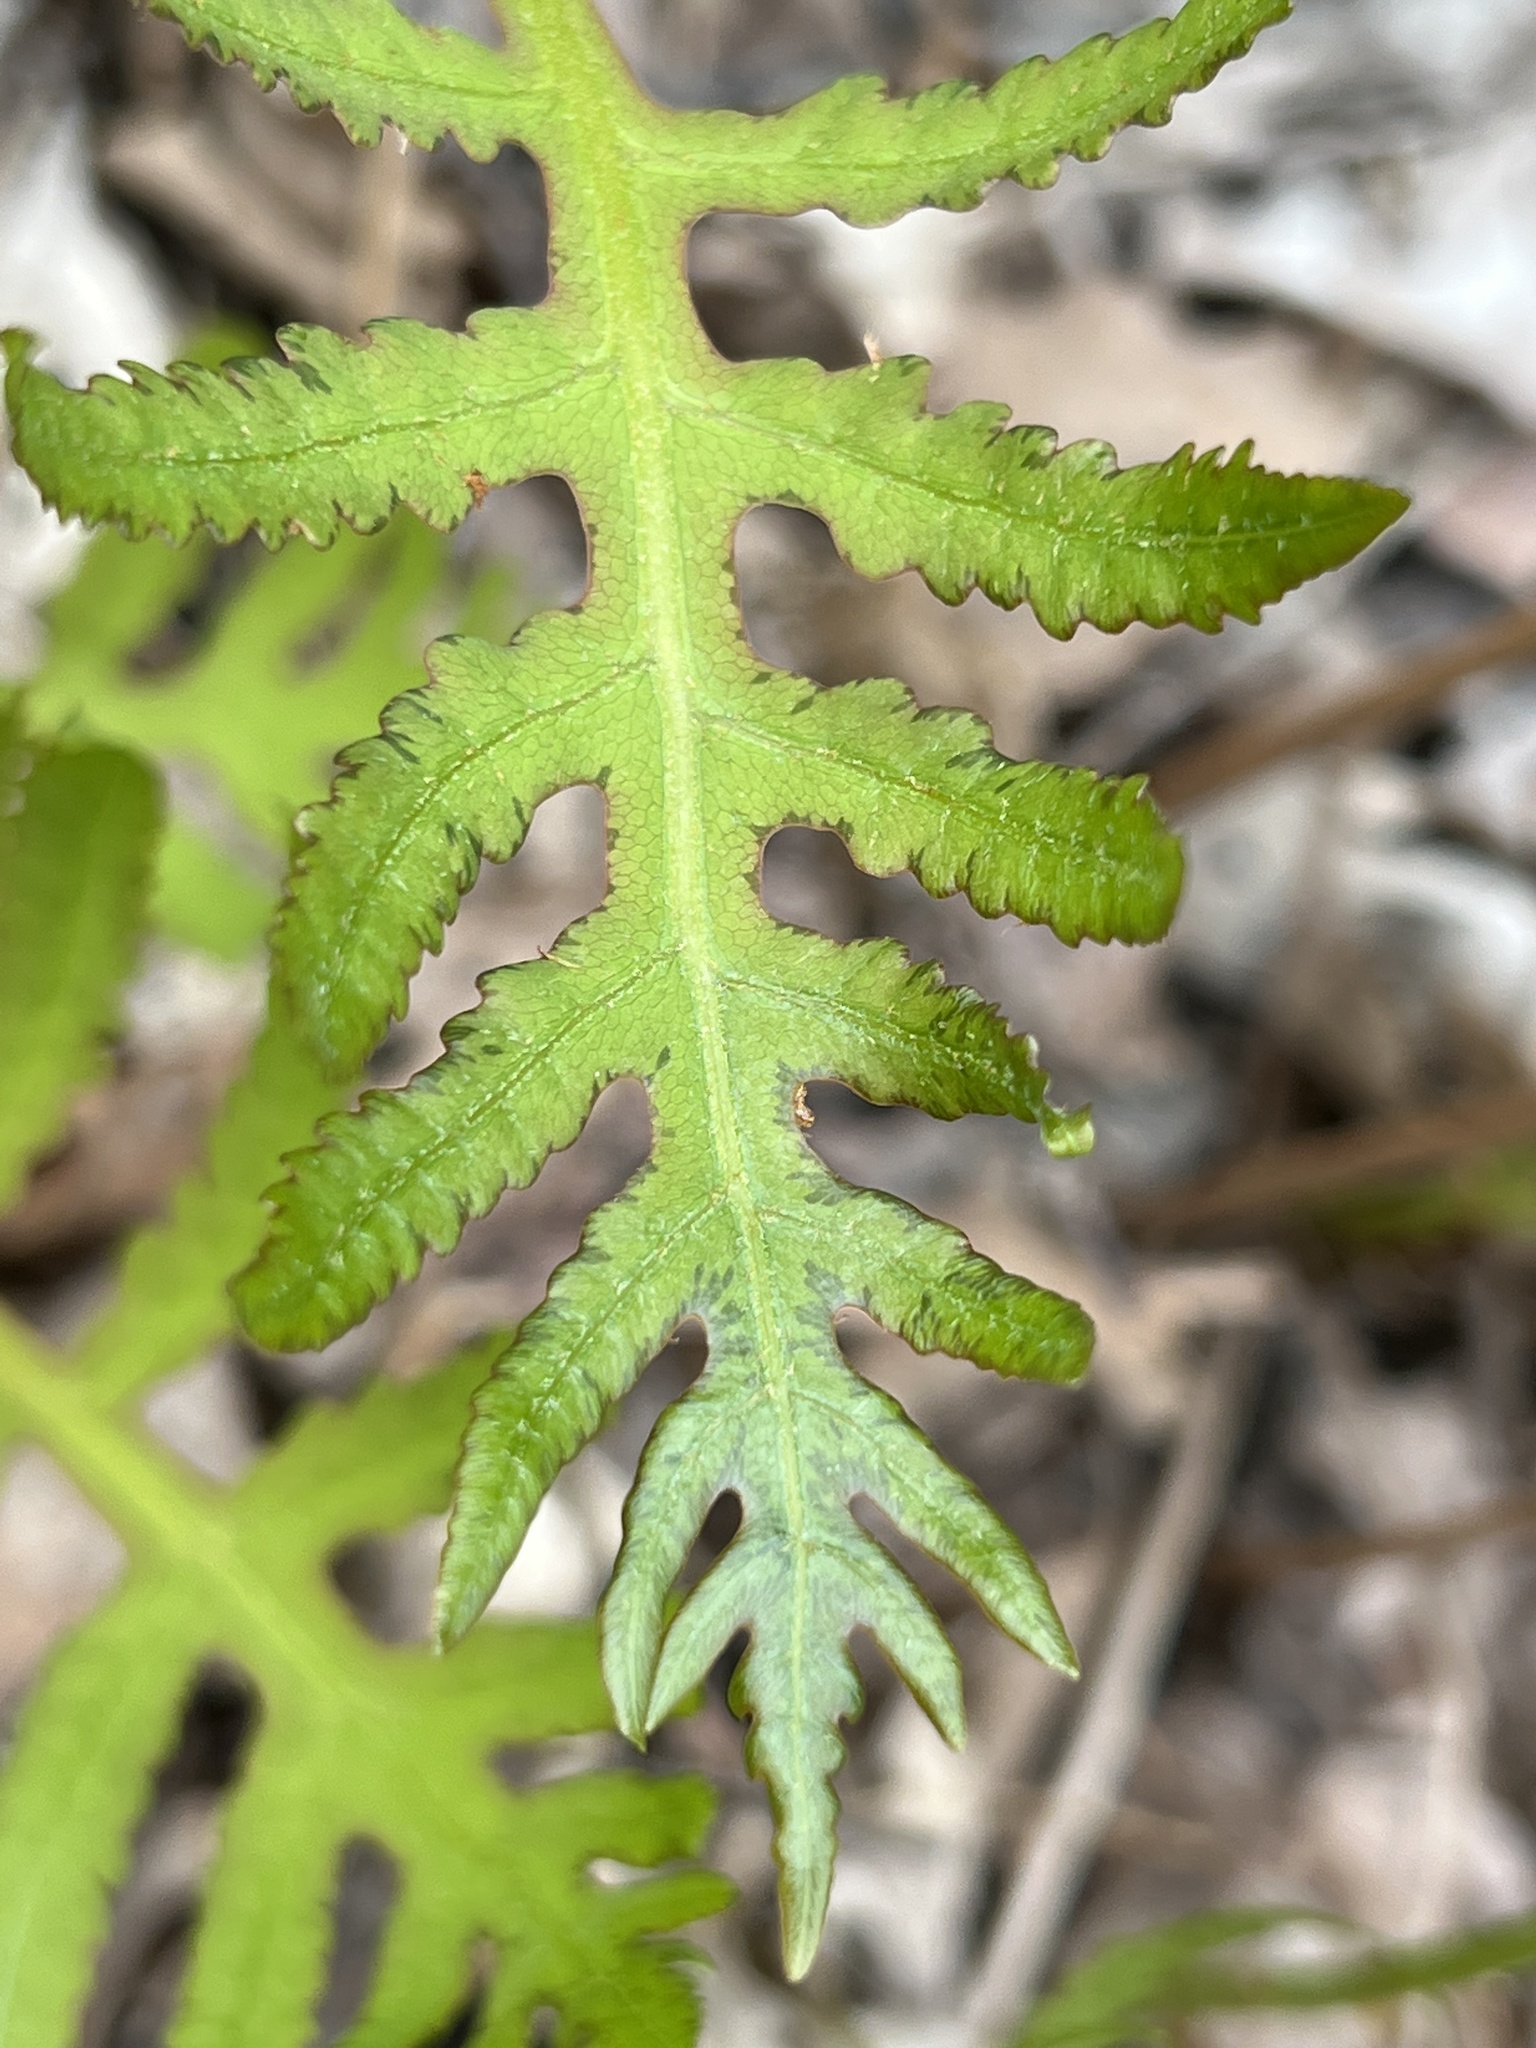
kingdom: Plantae
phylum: Tracheophyta
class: Polypodiopsida
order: Polypodiales
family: Onocleaceae
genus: Onoclea
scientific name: Onoclea sensibilis
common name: Sensitive fern
